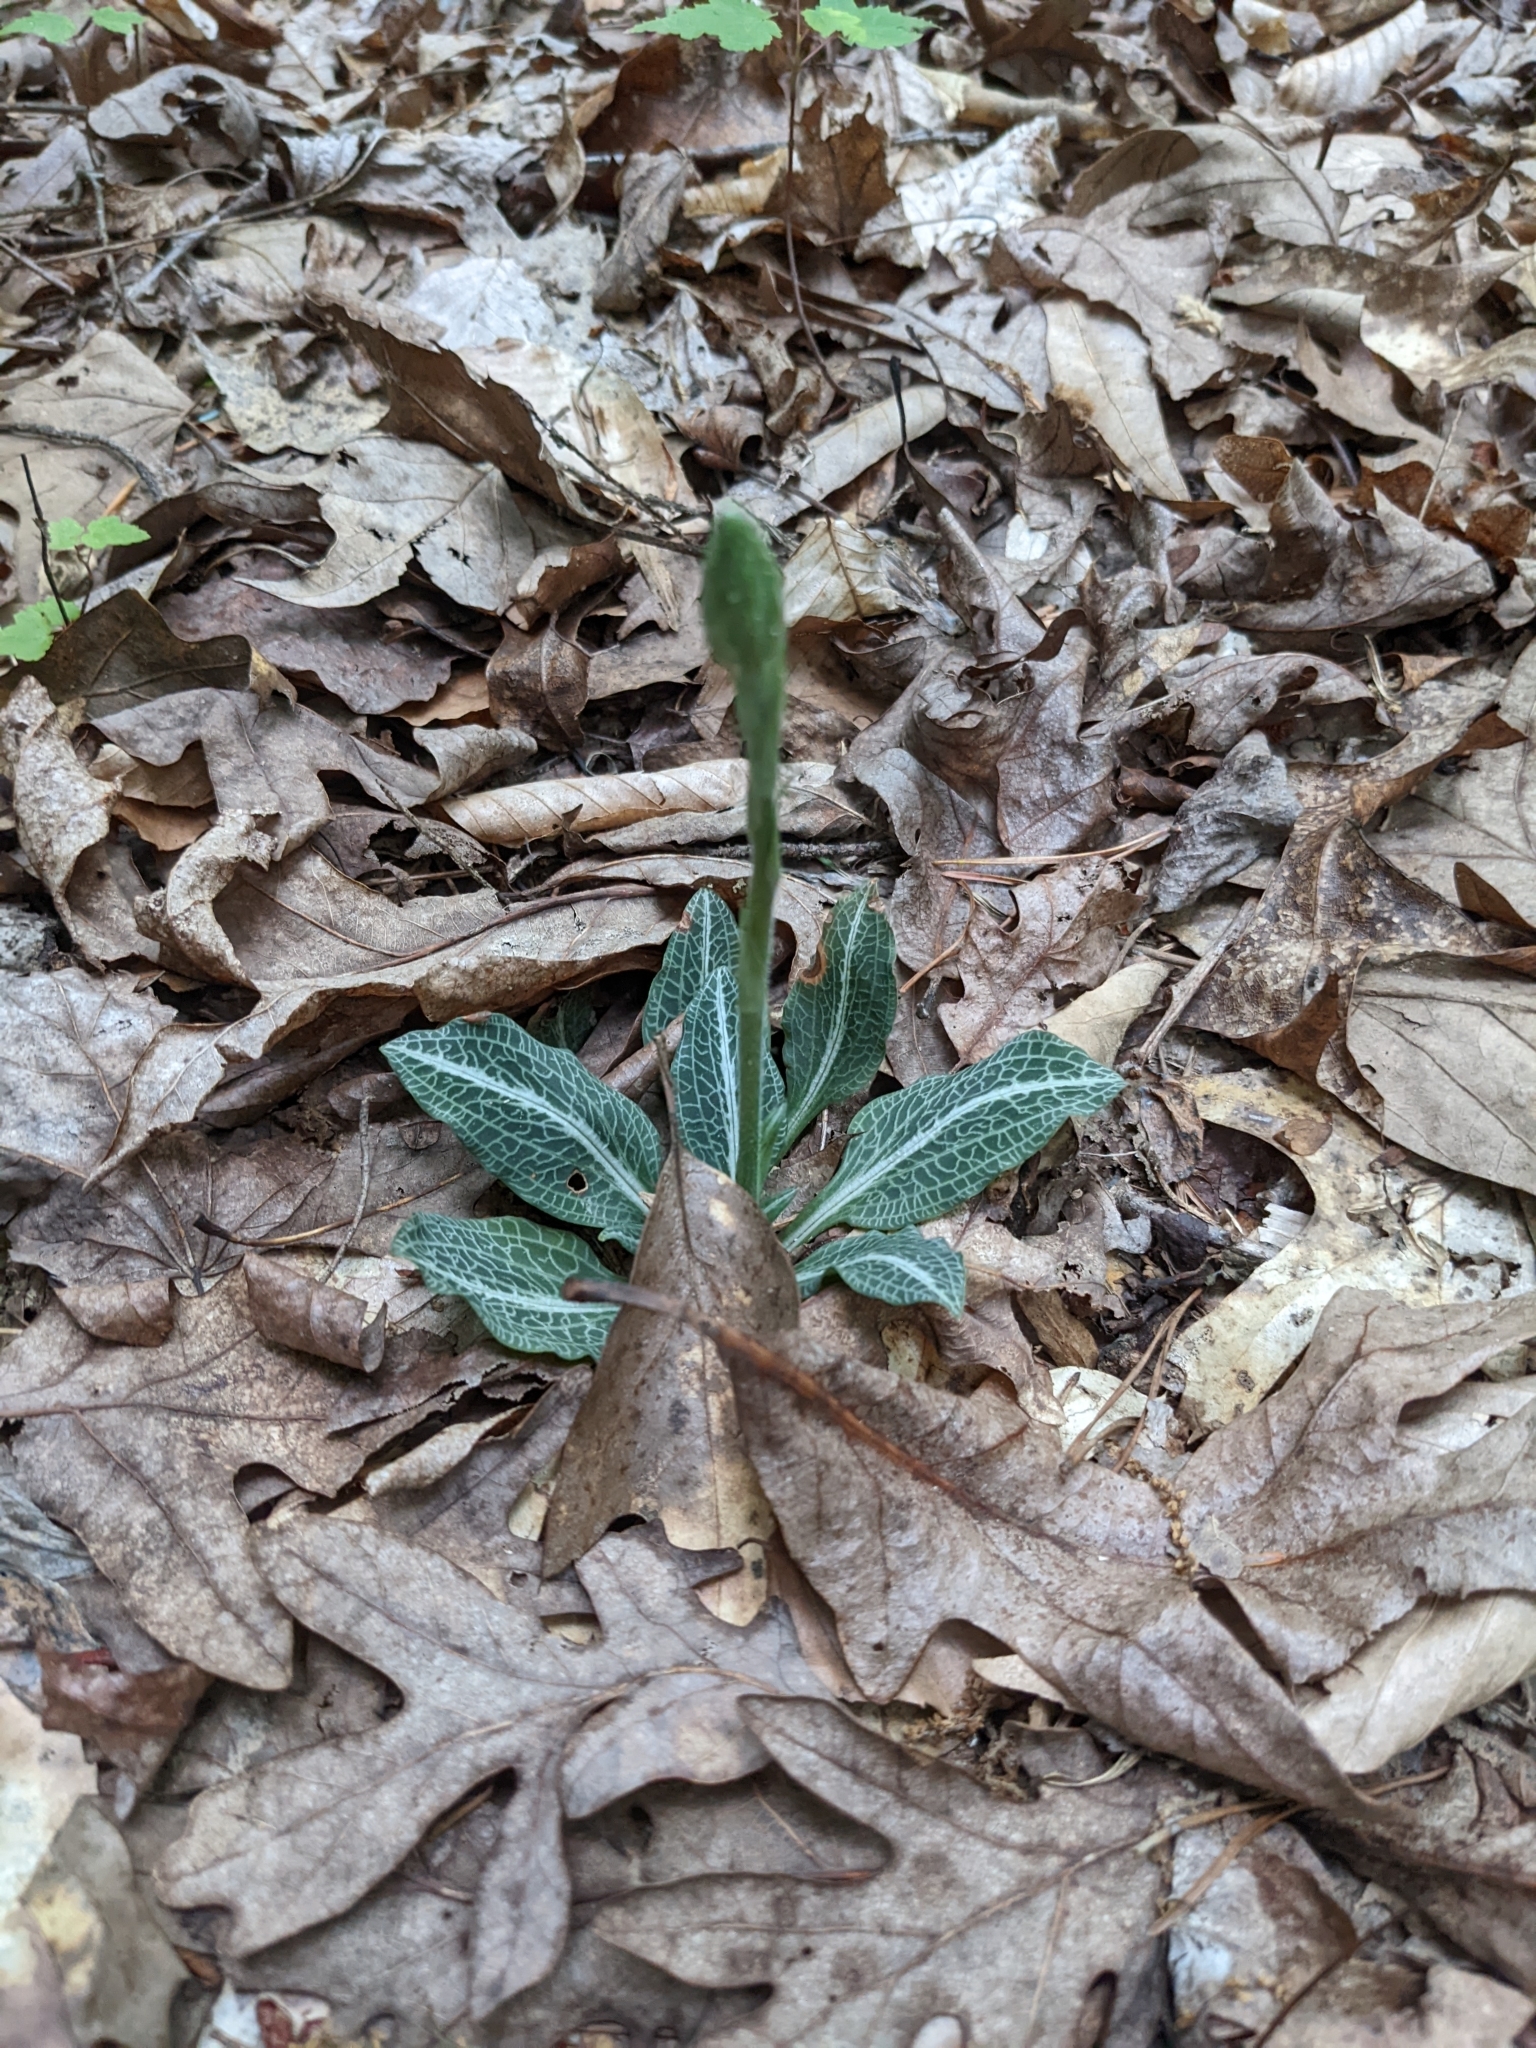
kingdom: Plantae
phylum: Tracheophyta
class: Liliopsida
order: Asparagales
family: Orchidaceae
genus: Goodyera
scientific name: Goodyera pubescens
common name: Downy rattlesnake-plantain
